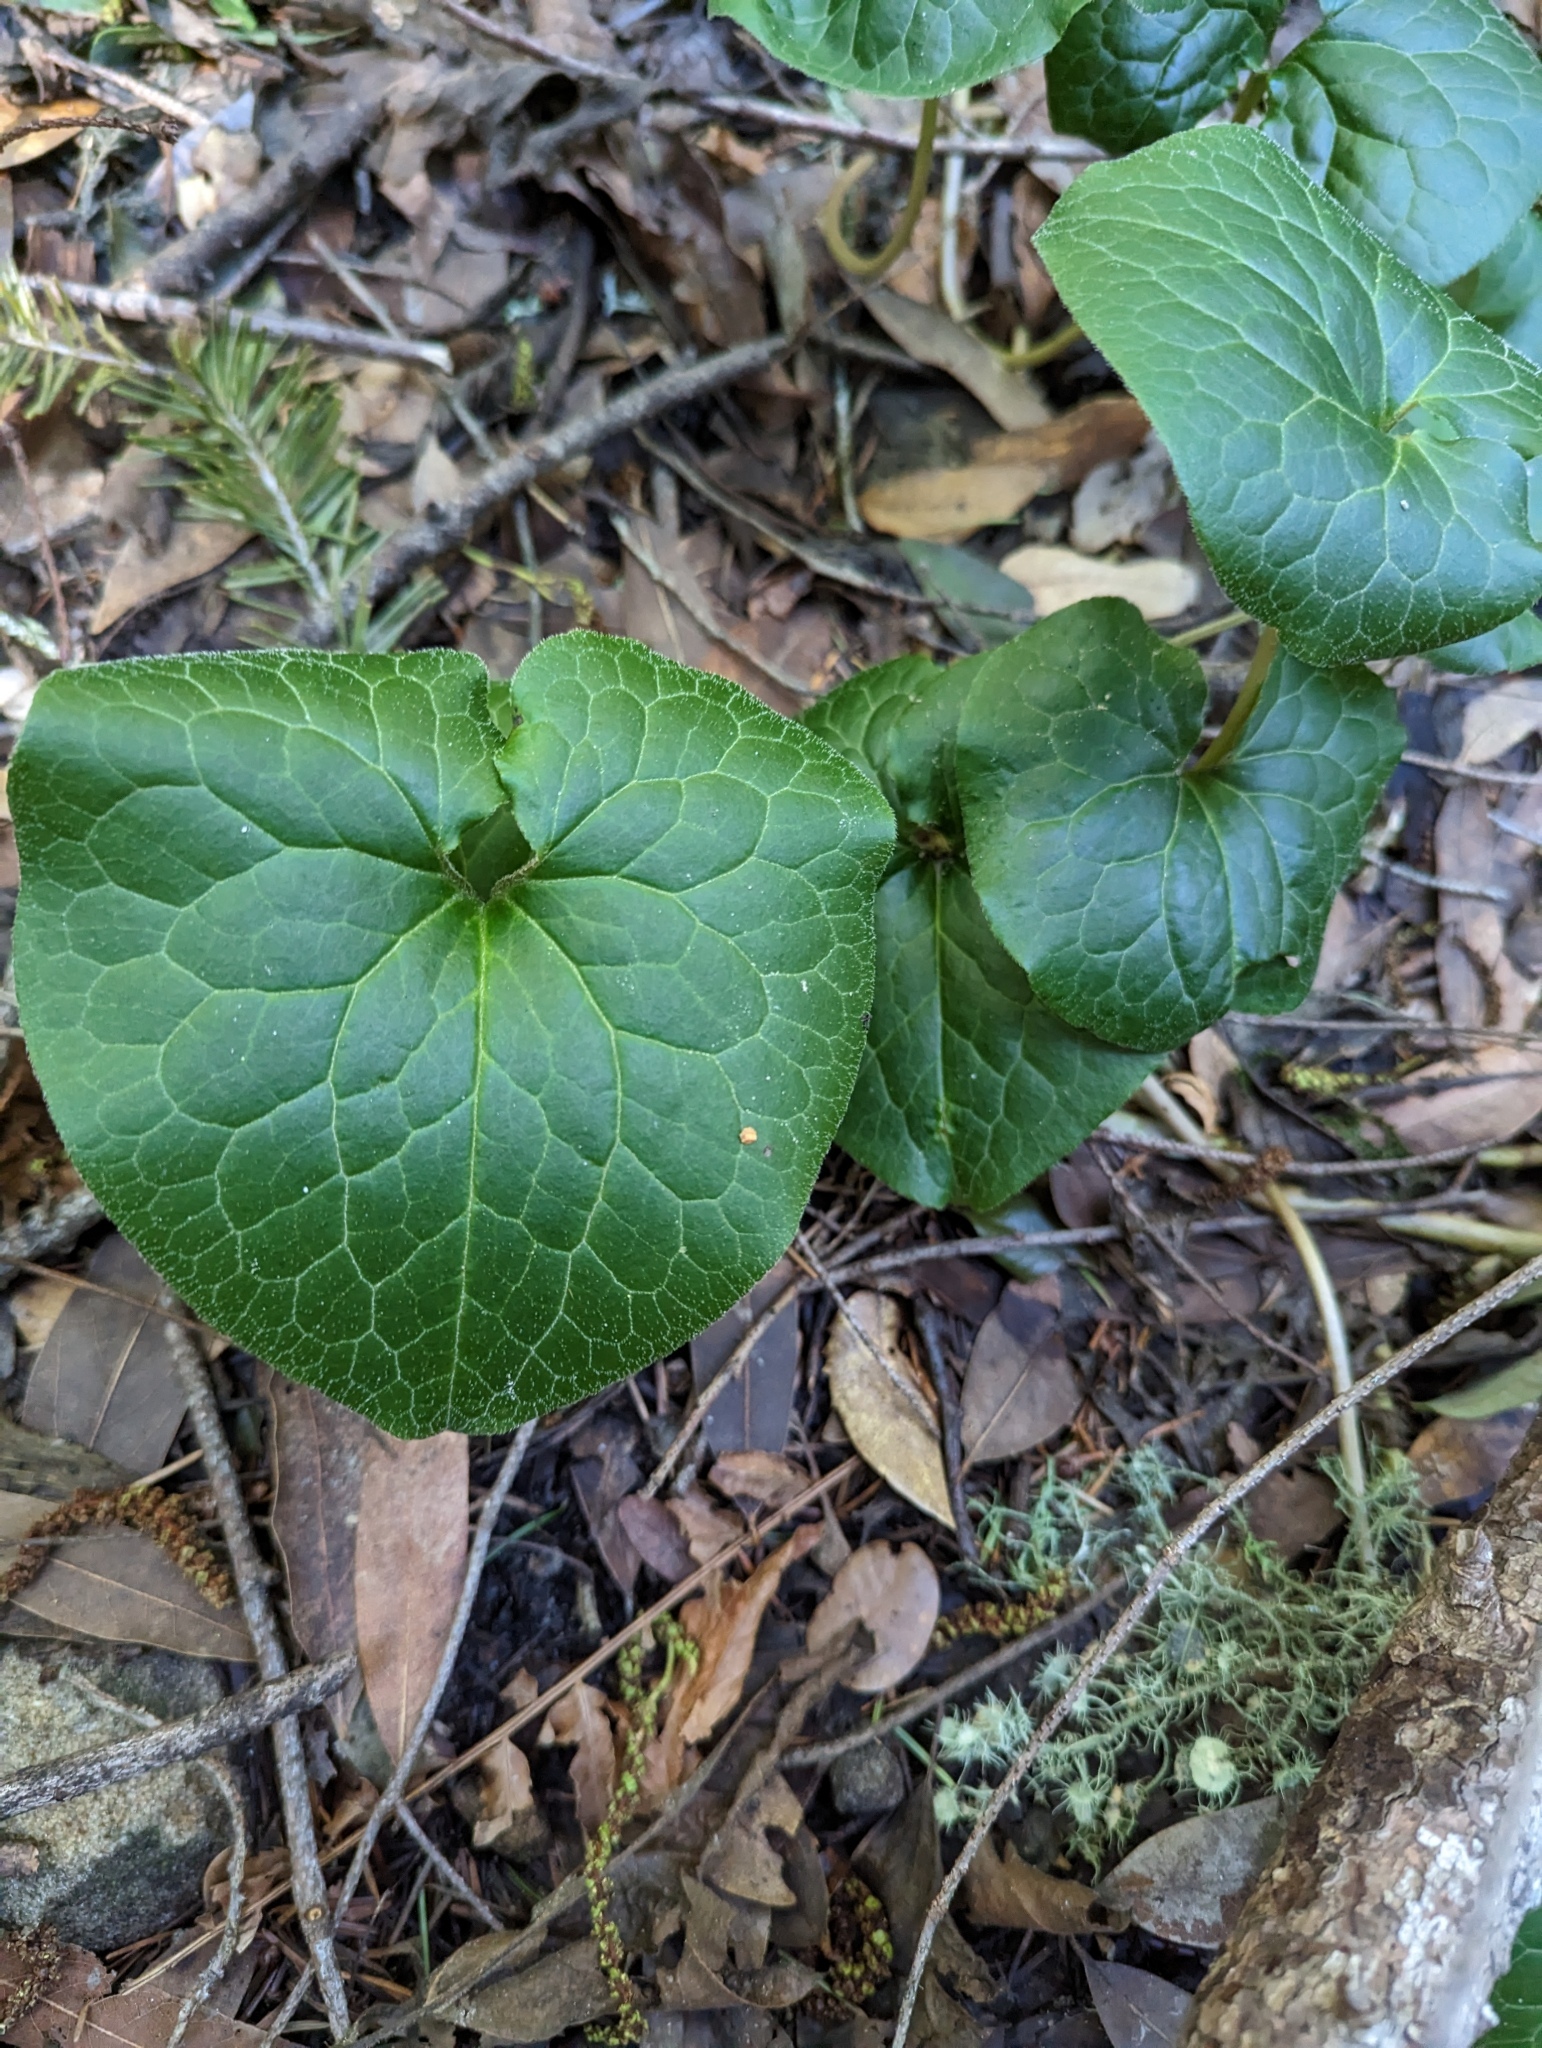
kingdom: Plantae
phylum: Tracheophyta
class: Magnoliopsida
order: Piperales
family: Aristolochiaceae
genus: Asarum
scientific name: Asarum caudatum
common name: Wild ginger
